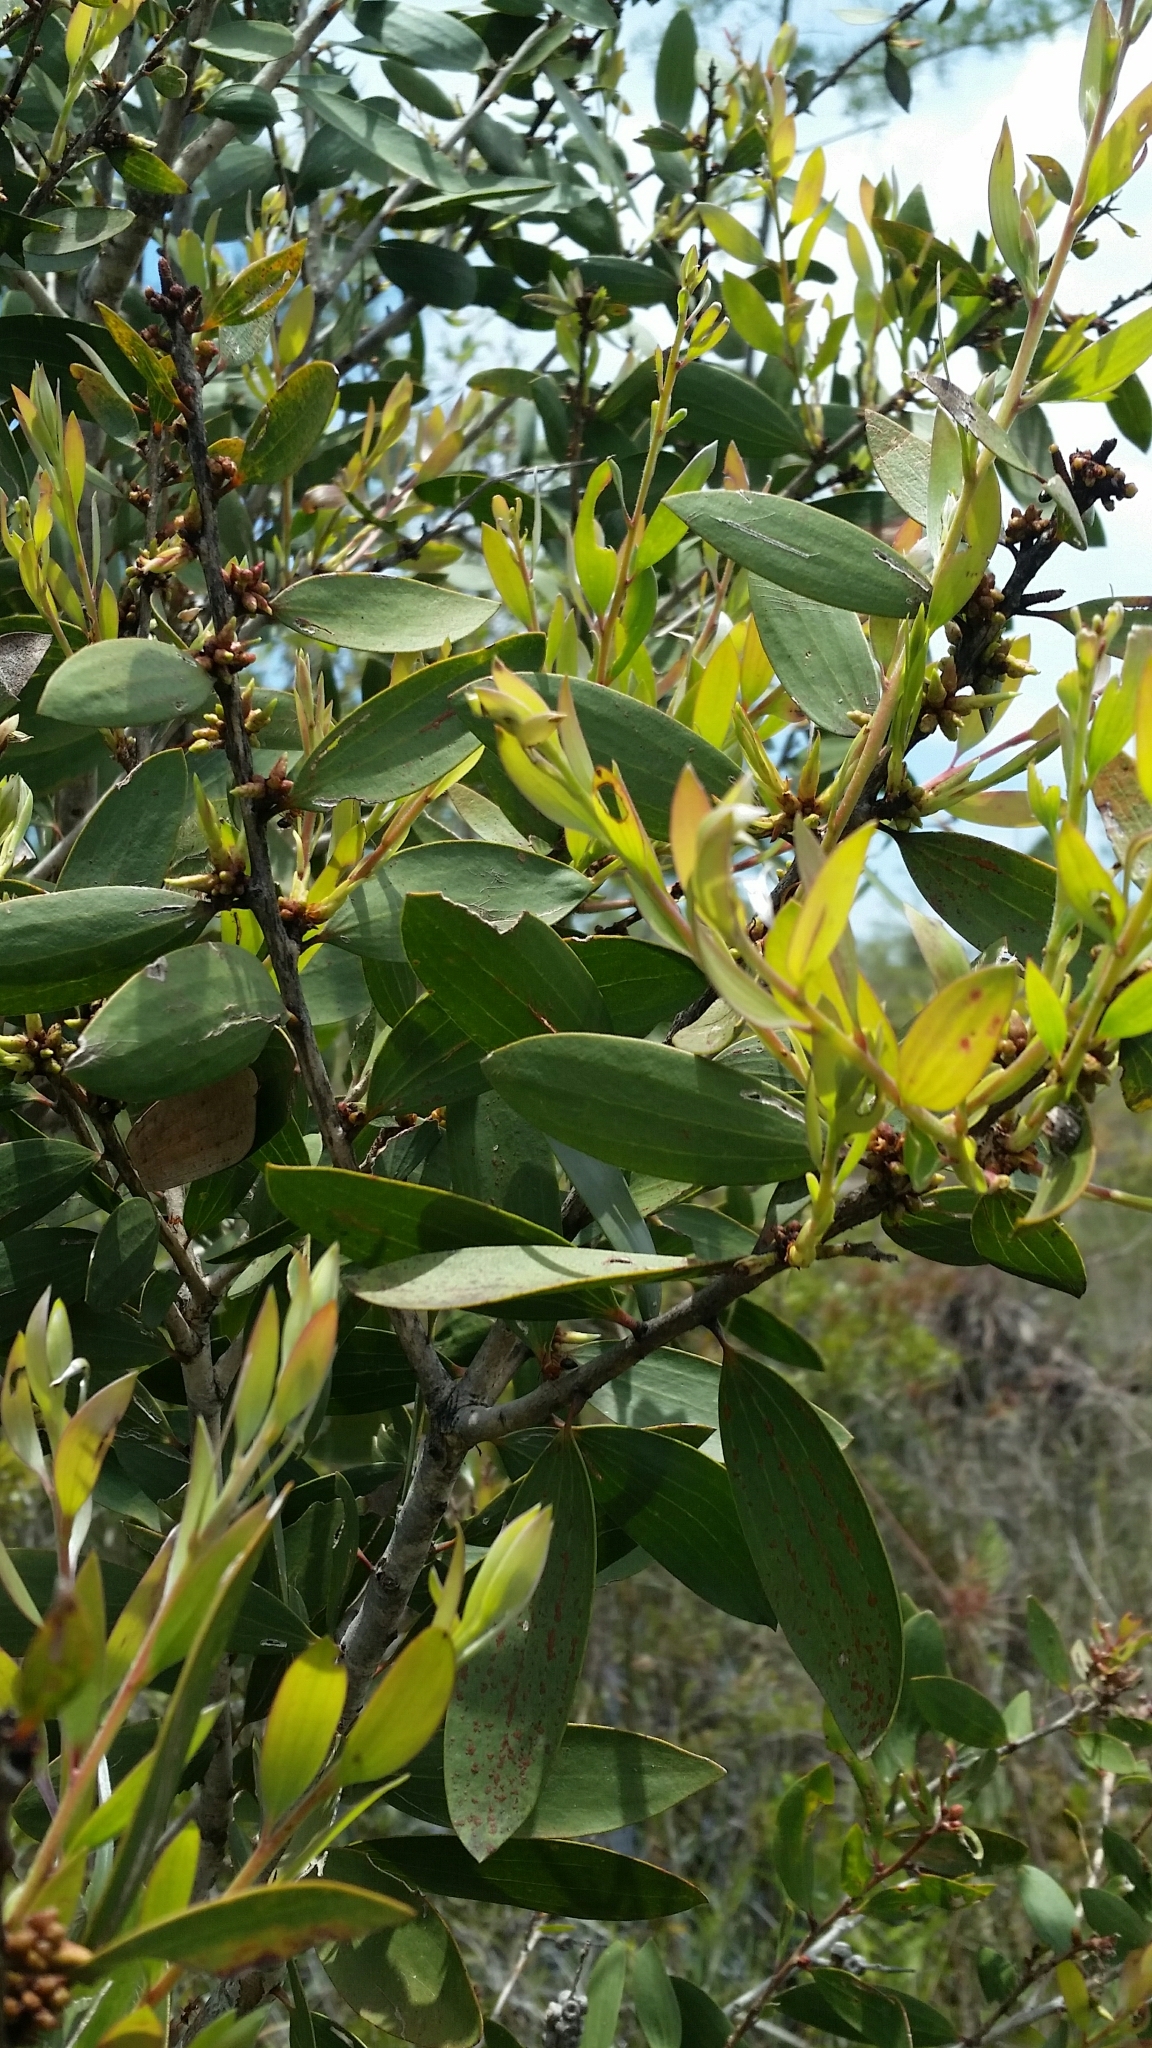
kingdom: Plantae
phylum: Tracheophyta
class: Magnoliopsida
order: Myrtales
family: Myrtaceae
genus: Melaleuca
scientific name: Melaleuca quinquenervia
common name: Punktree
